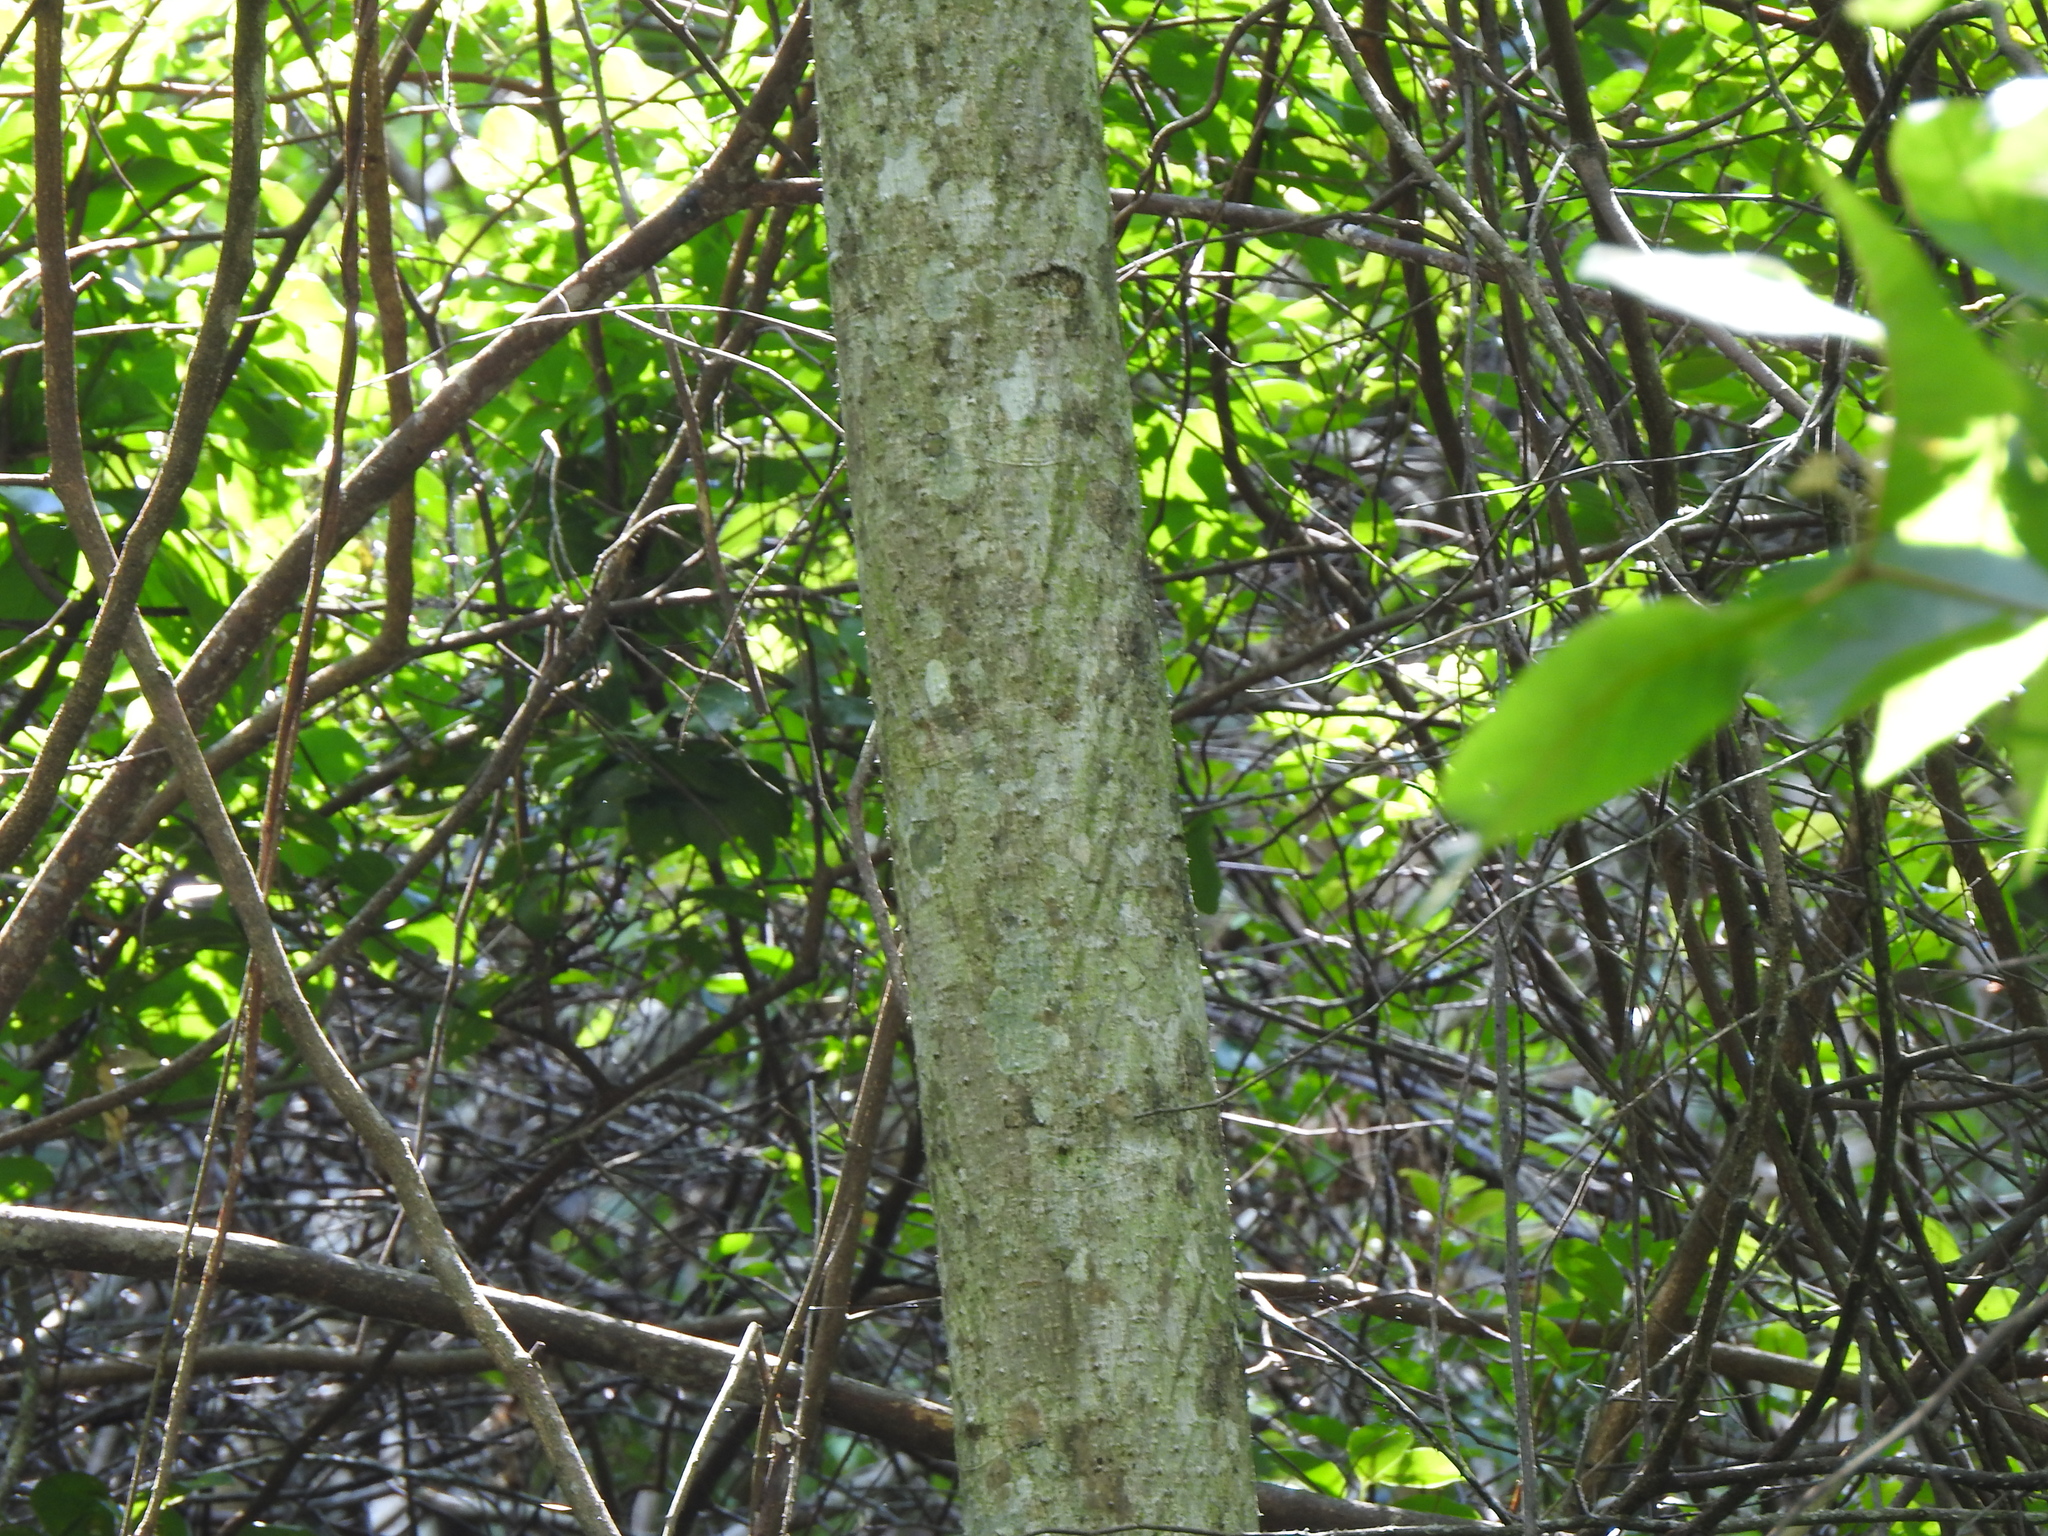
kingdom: Plantae
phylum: Tracheophyta
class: Magnoliopsida
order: Sapindales
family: Rutaceae
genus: Zanthoxylum
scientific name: Zanthoxylum ailanthoides
